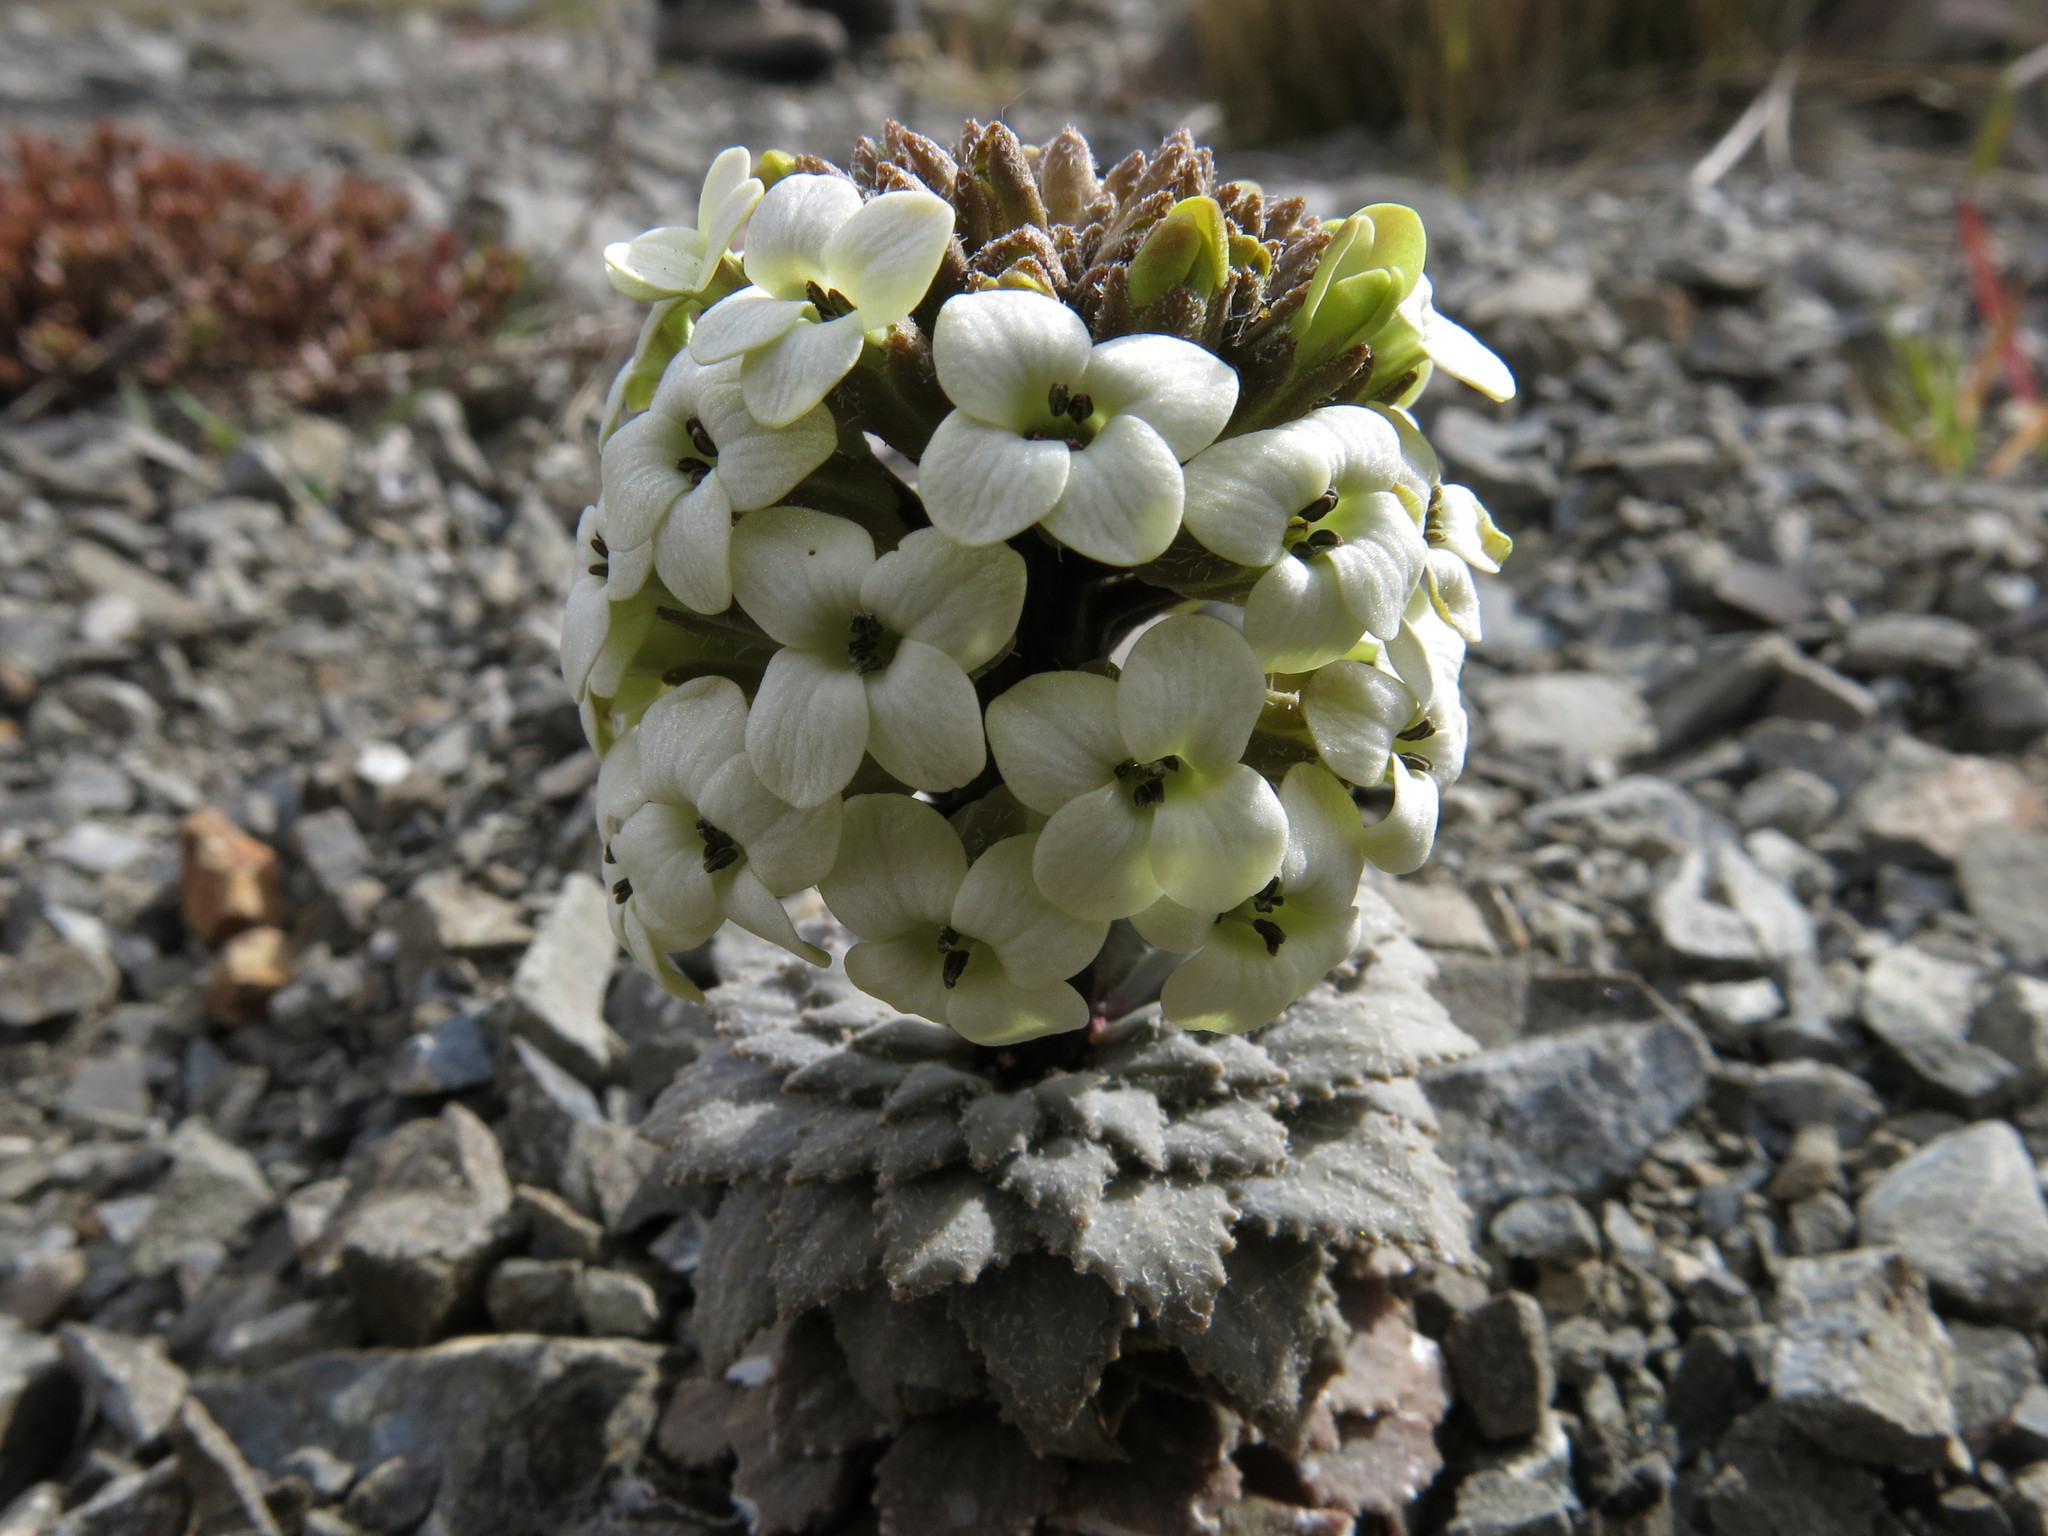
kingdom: Plantae
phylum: Tracheophyta
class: Magnoliopsida
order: Brassicales
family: Brassicaceae
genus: Notothlaspi
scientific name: Notothlaspi rosulatum
